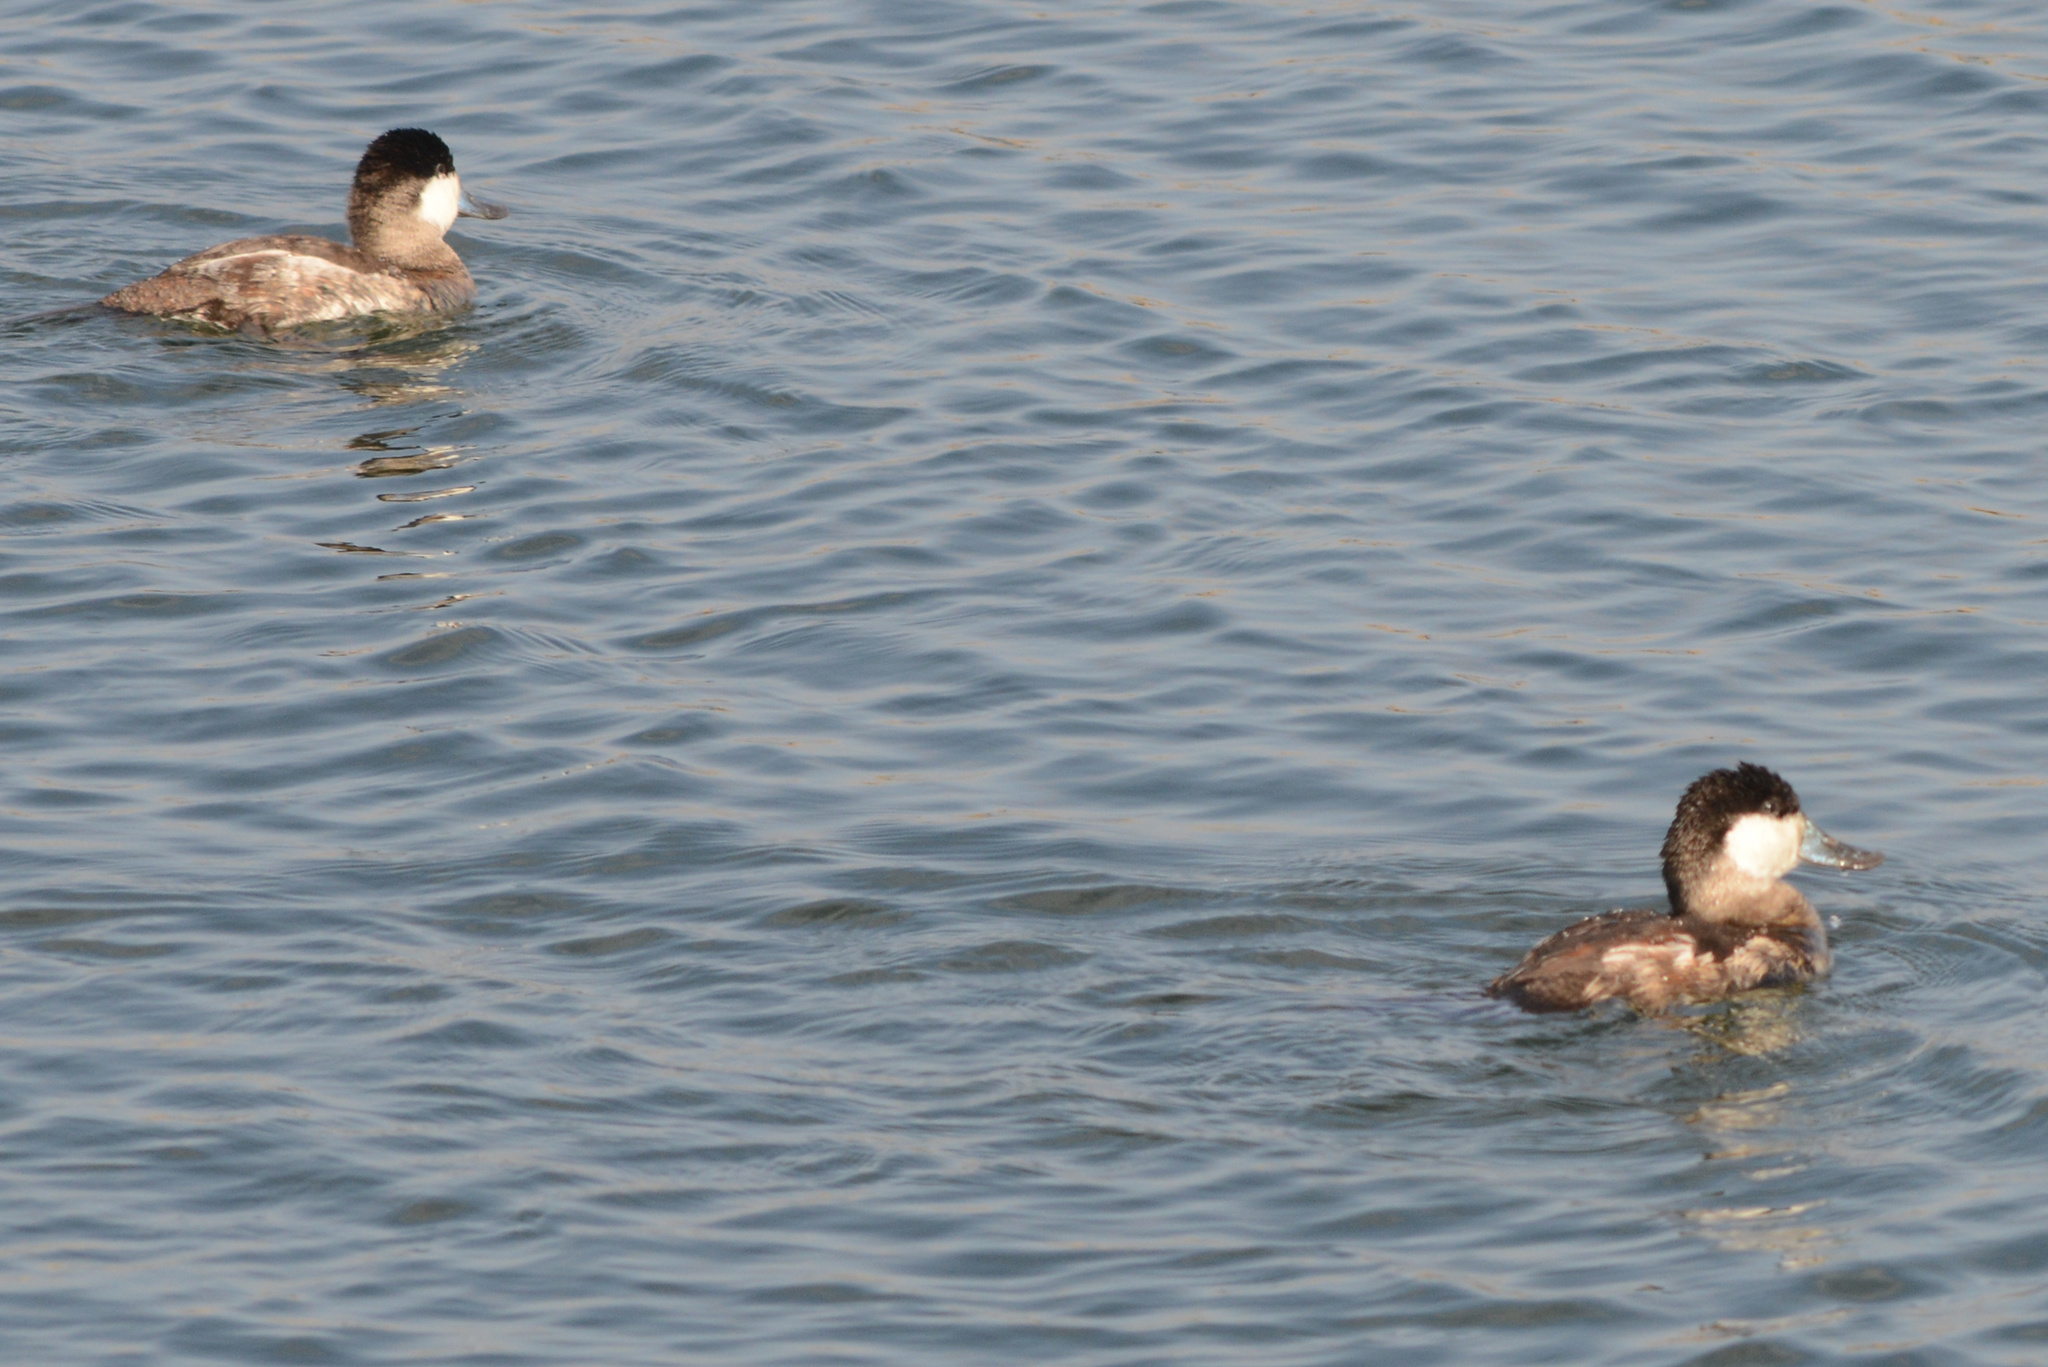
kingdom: Animalia
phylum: Chordata
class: Aves
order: Anseriformes
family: Anatidae
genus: Oxyura
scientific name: Oxyura jamaicensis
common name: Ruddy duck
